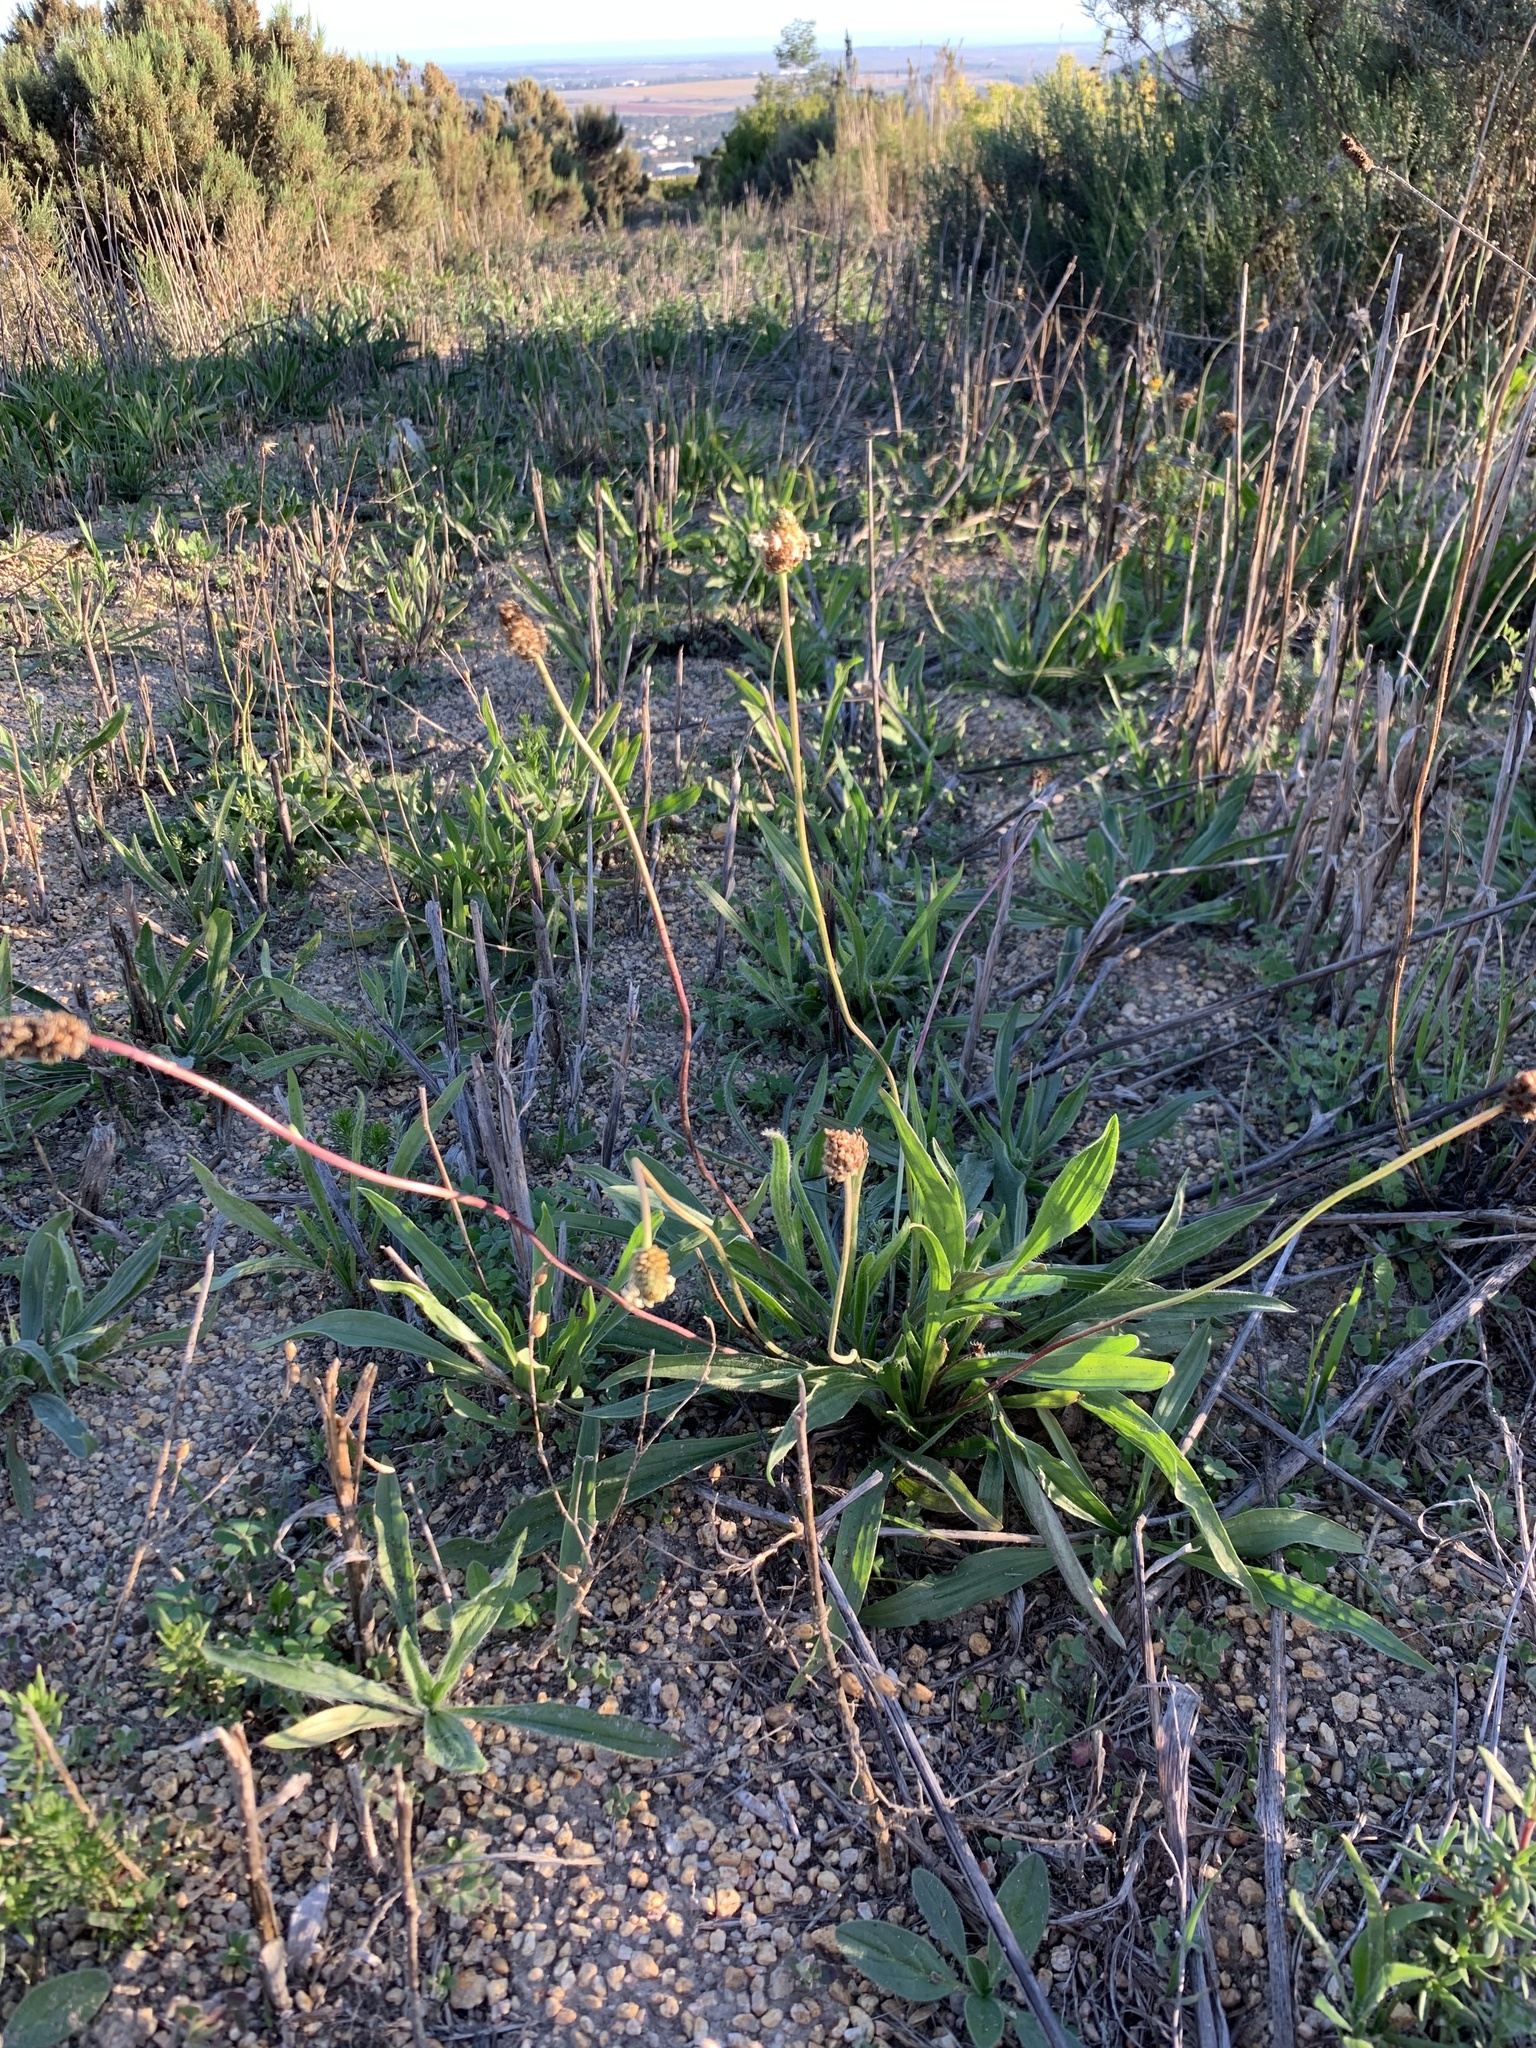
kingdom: Plantae
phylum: Tracheophyta
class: Magnoliopsida
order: Lamiales
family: Plantaginaceae
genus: Plantago
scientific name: Plantago lanceolata
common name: Ribwort plantain
